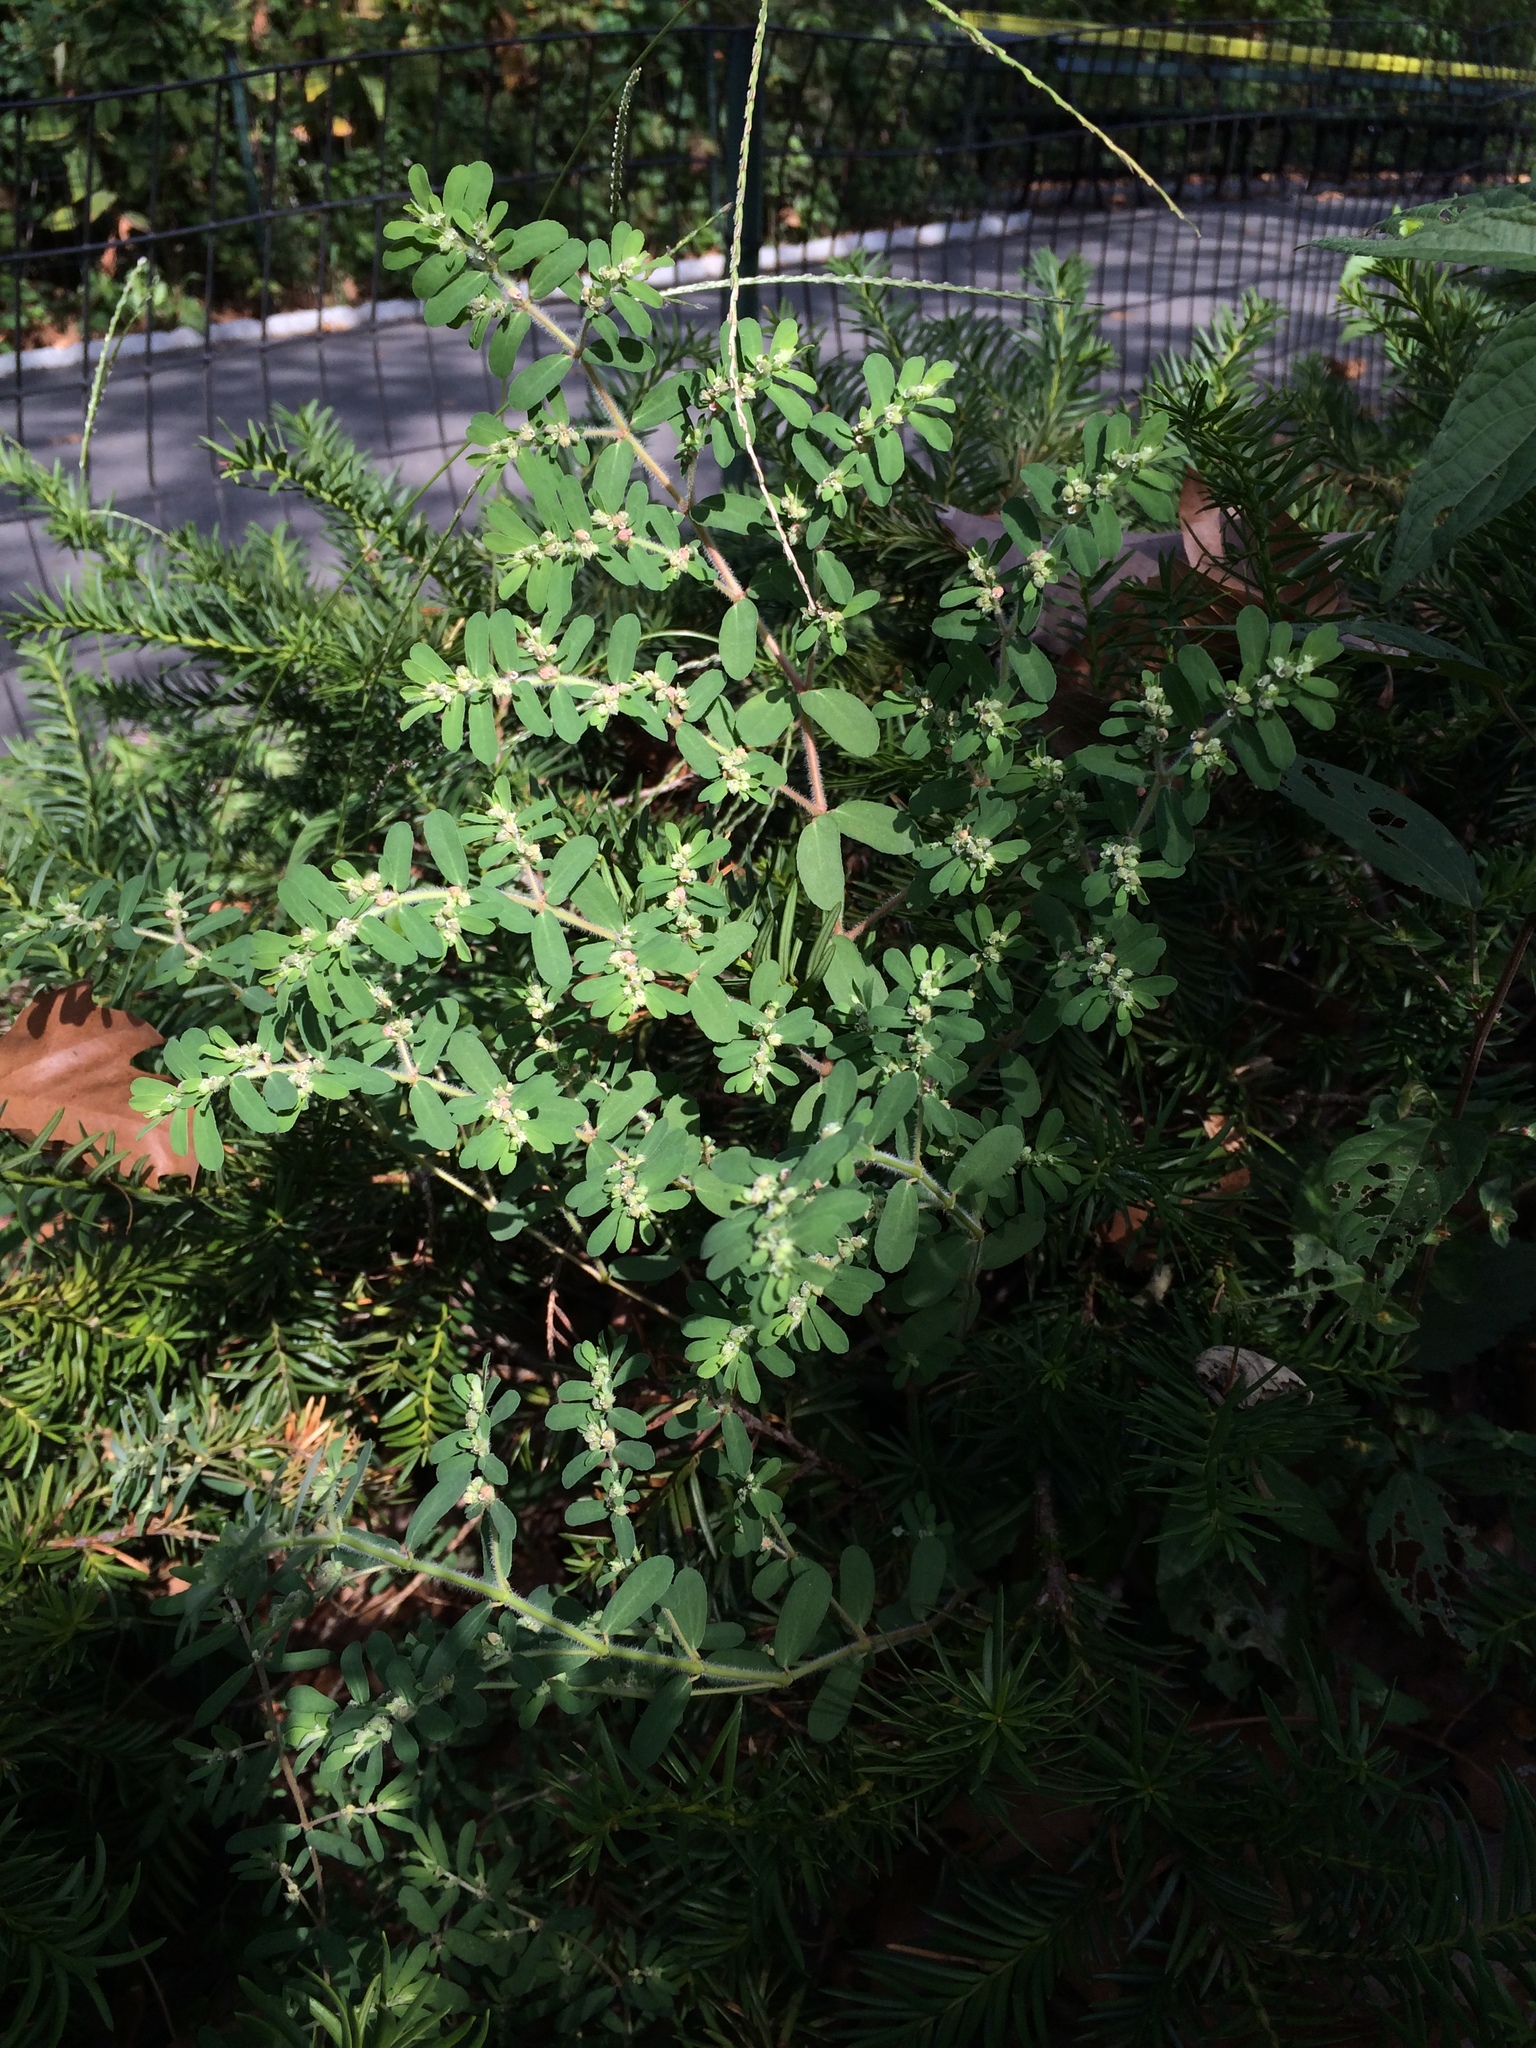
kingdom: Plantae
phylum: Tracheophyta
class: Magnoliopsida
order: Malpighiales
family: Euphorbiaceae
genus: Euphorbia
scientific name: Euphorbia maculata
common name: Spotted spurge
